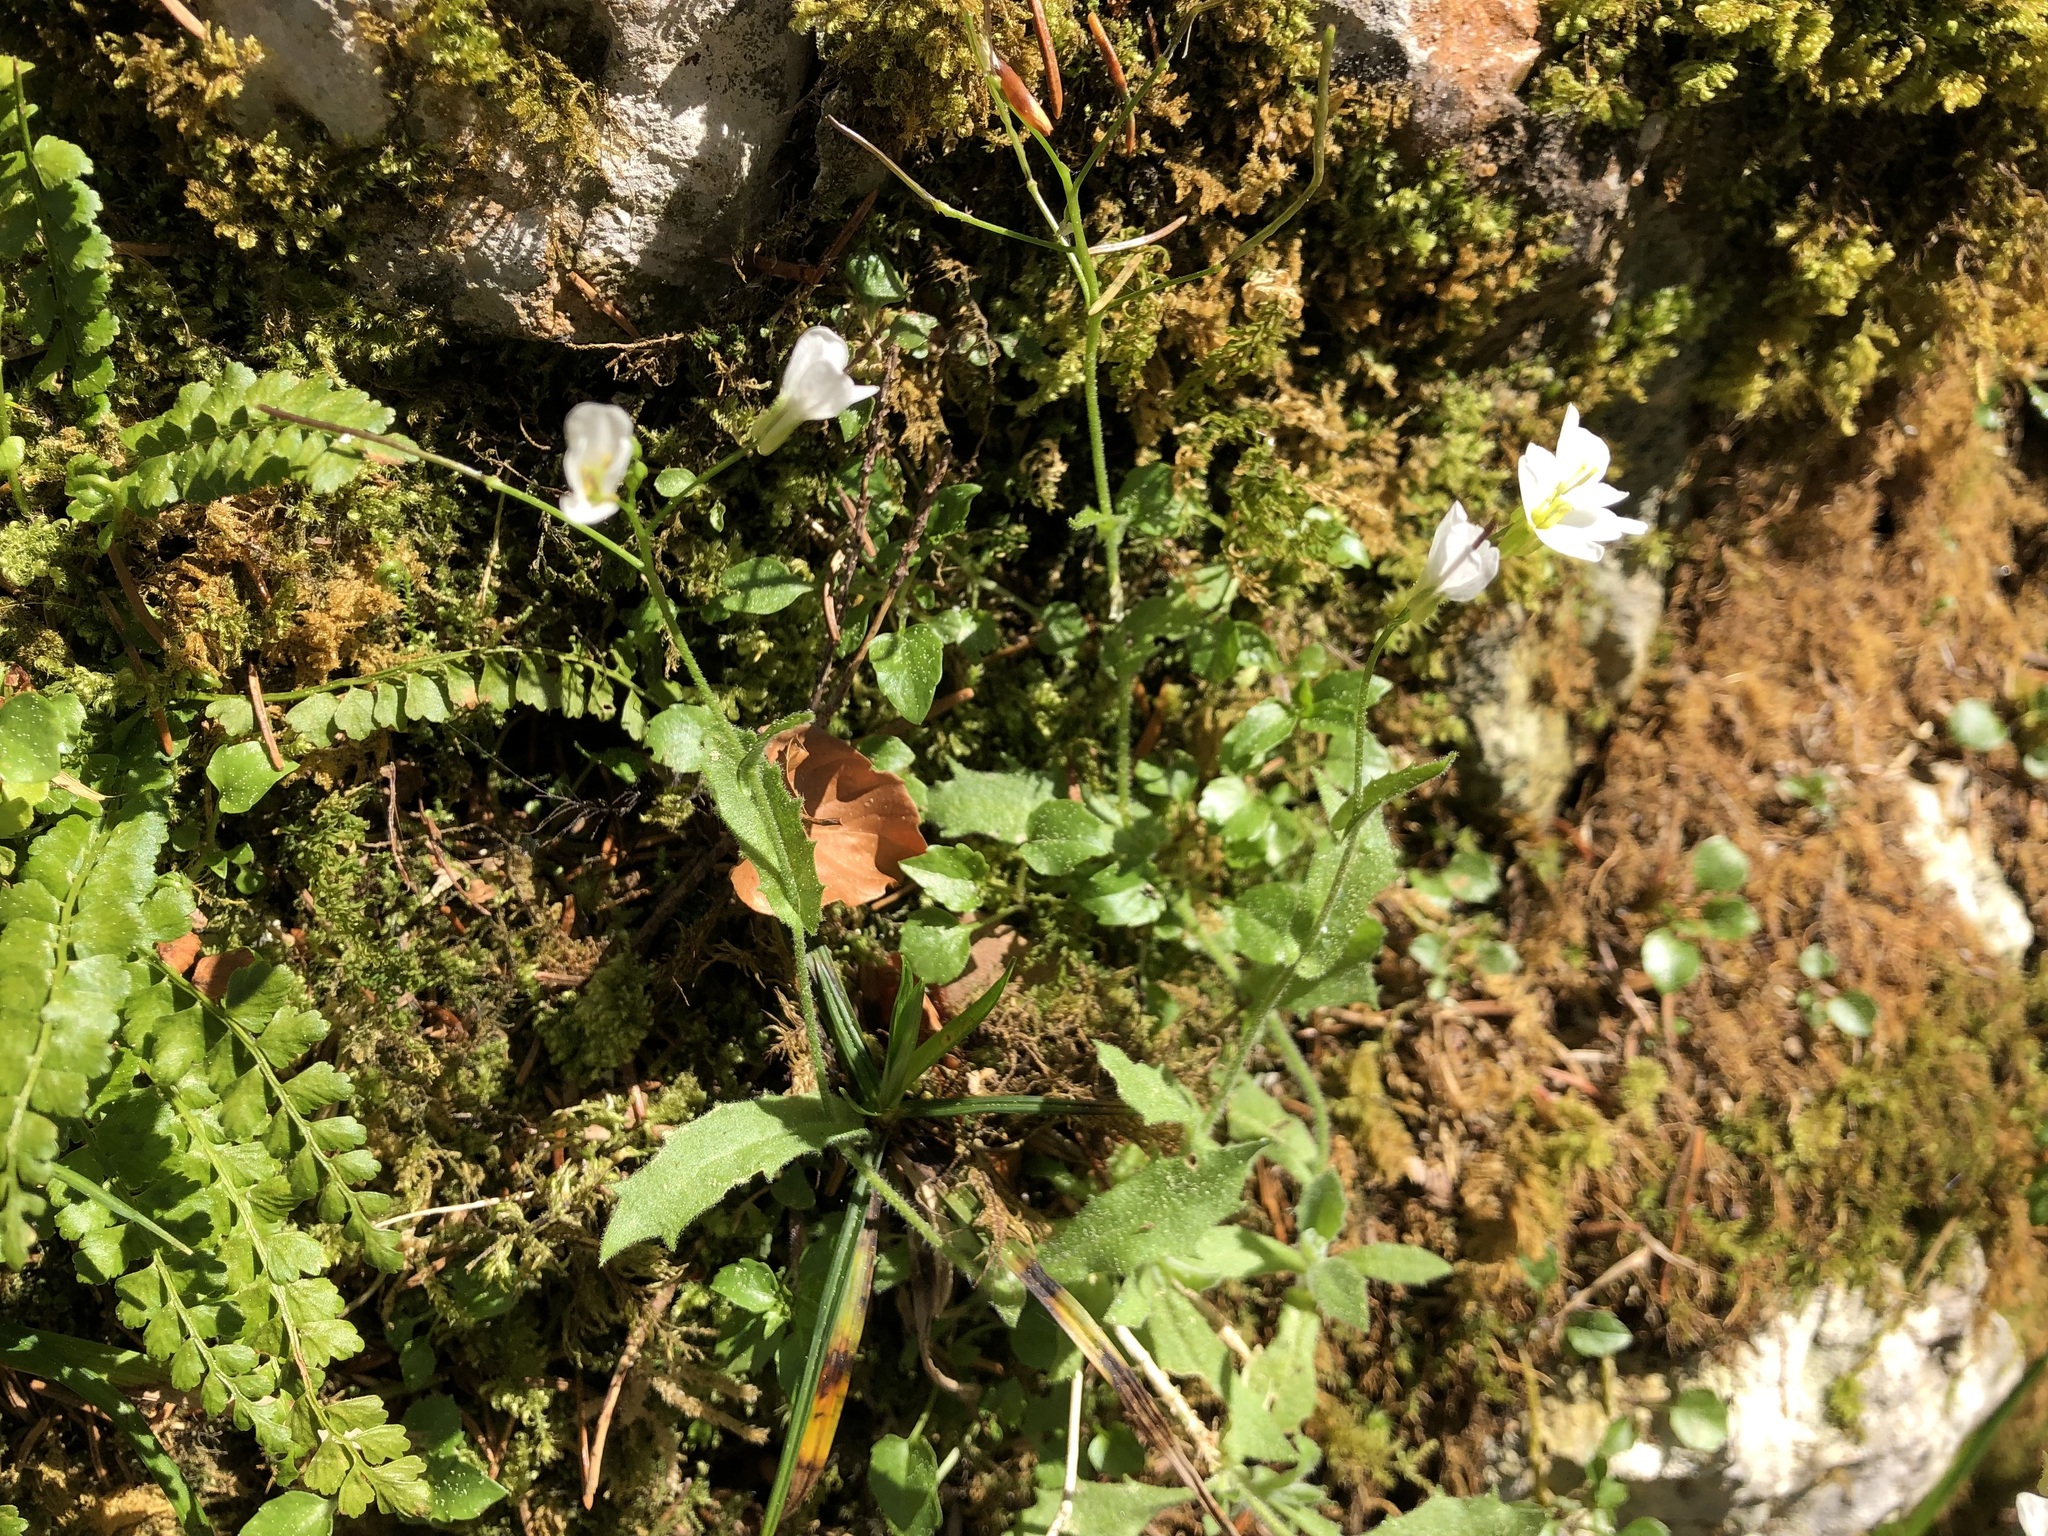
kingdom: Plantae
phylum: Tracheophyta
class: Magnoliopsida
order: Brassicales
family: Brassicaceae
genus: Arabis
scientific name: Arabis alpina
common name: Alpine rock-cress
